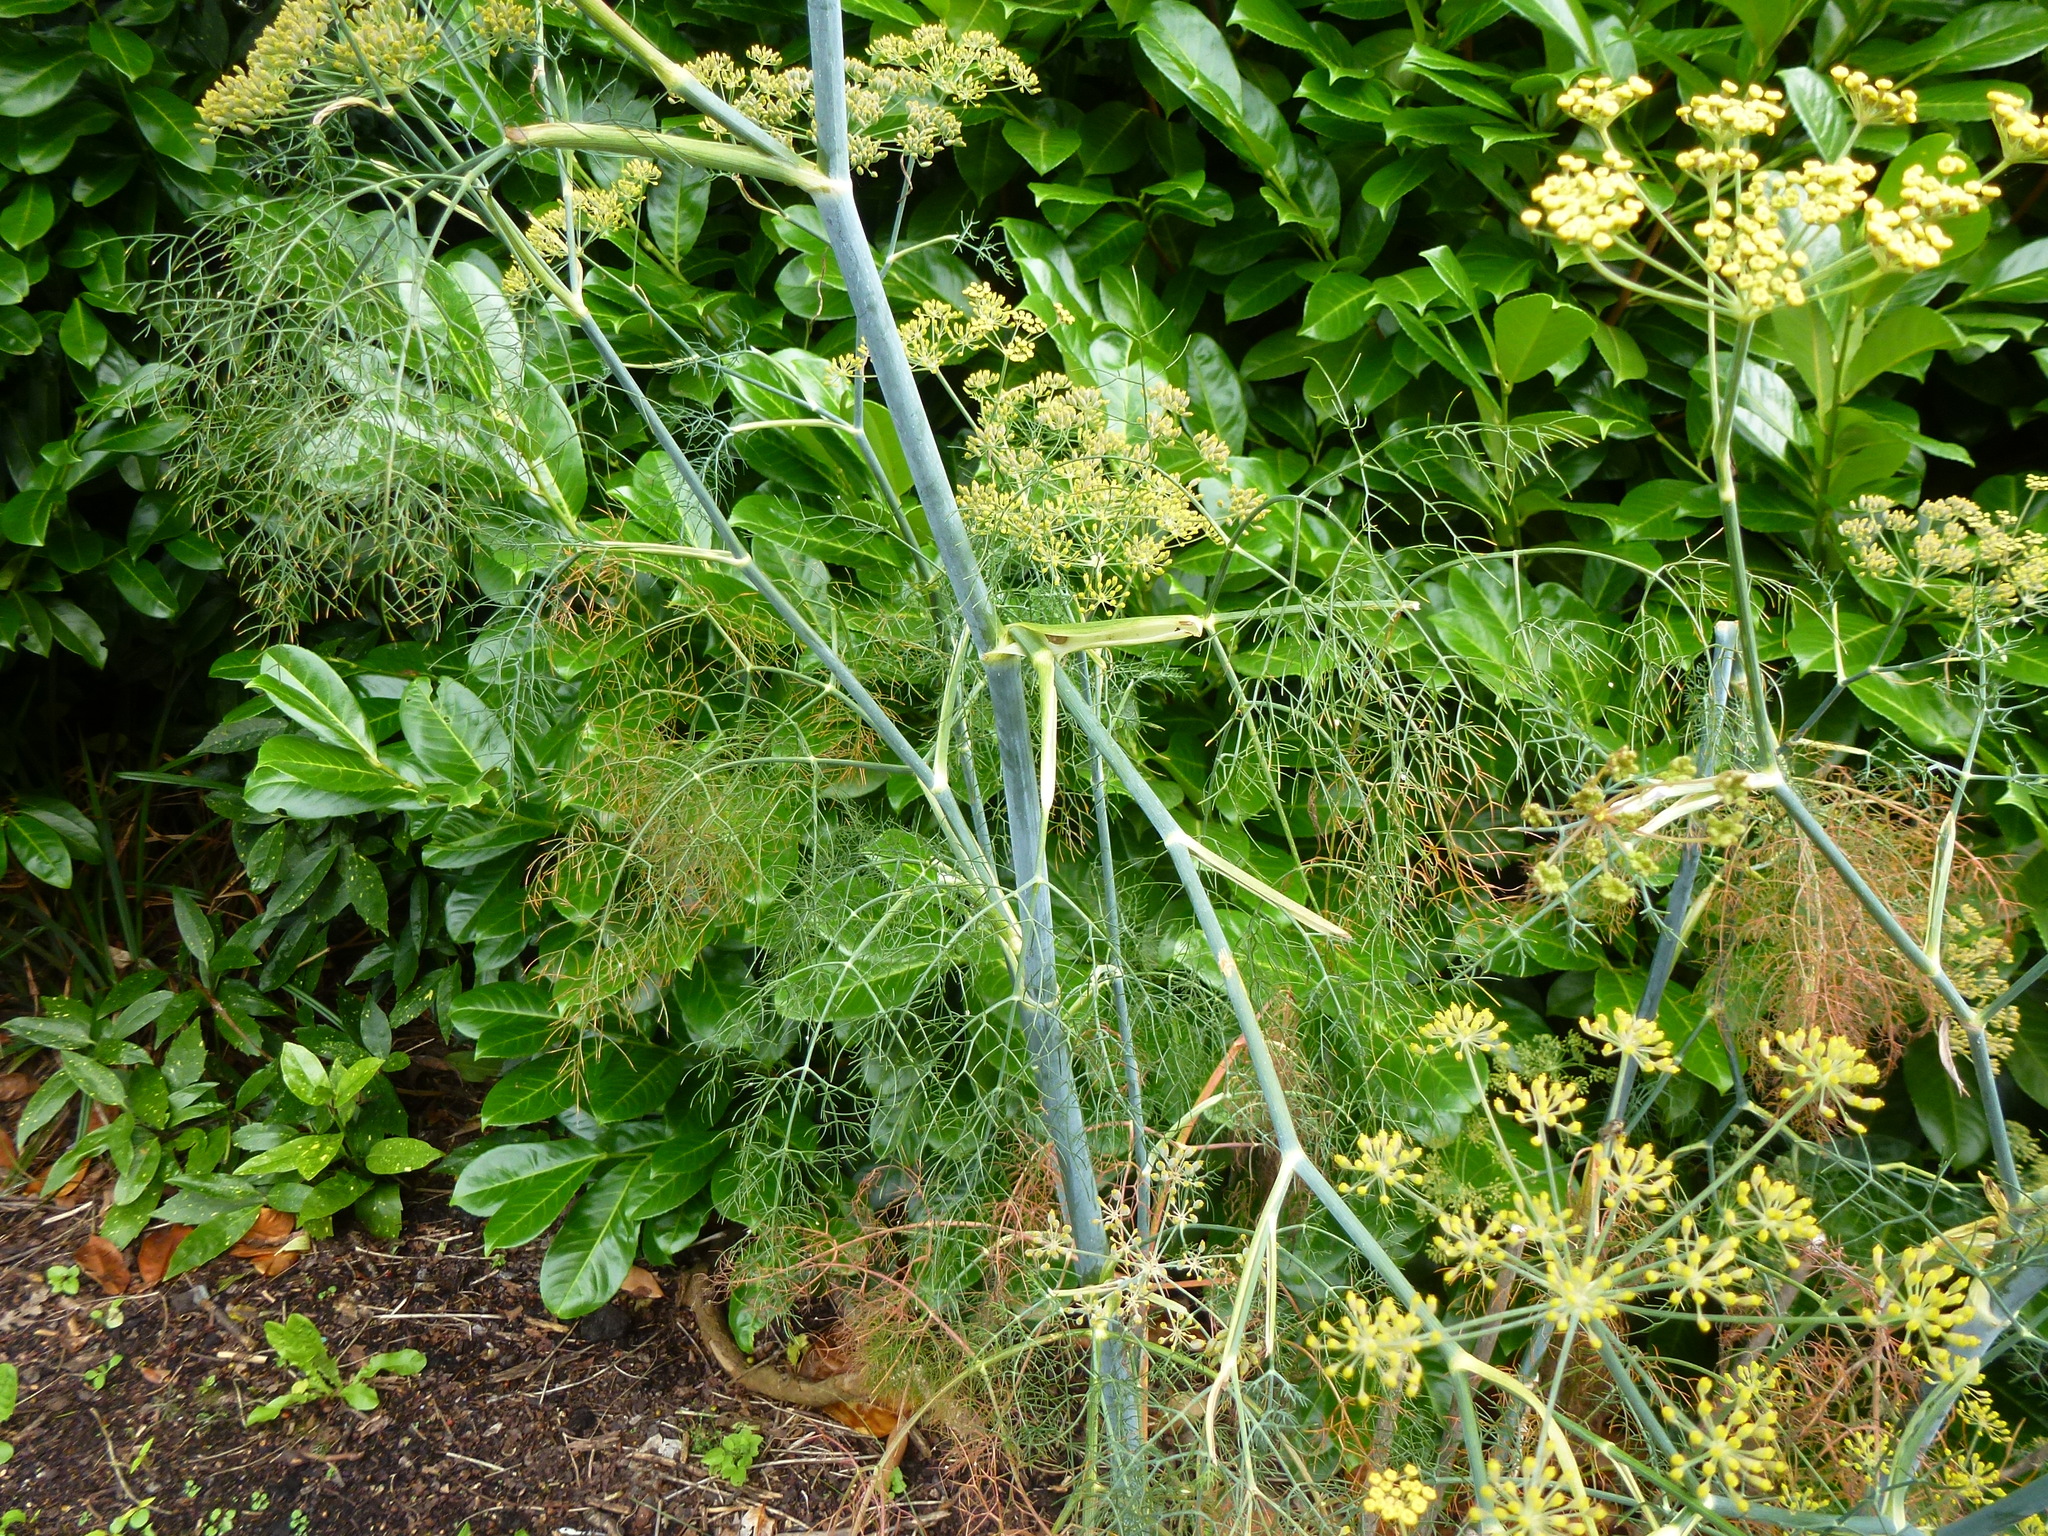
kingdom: Plantae
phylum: Tracheophyta
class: Magnoliopsida
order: Apiales
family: Apiaceae
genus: Foeniculum
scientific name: Foeniculum vulgare
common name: Fennel
